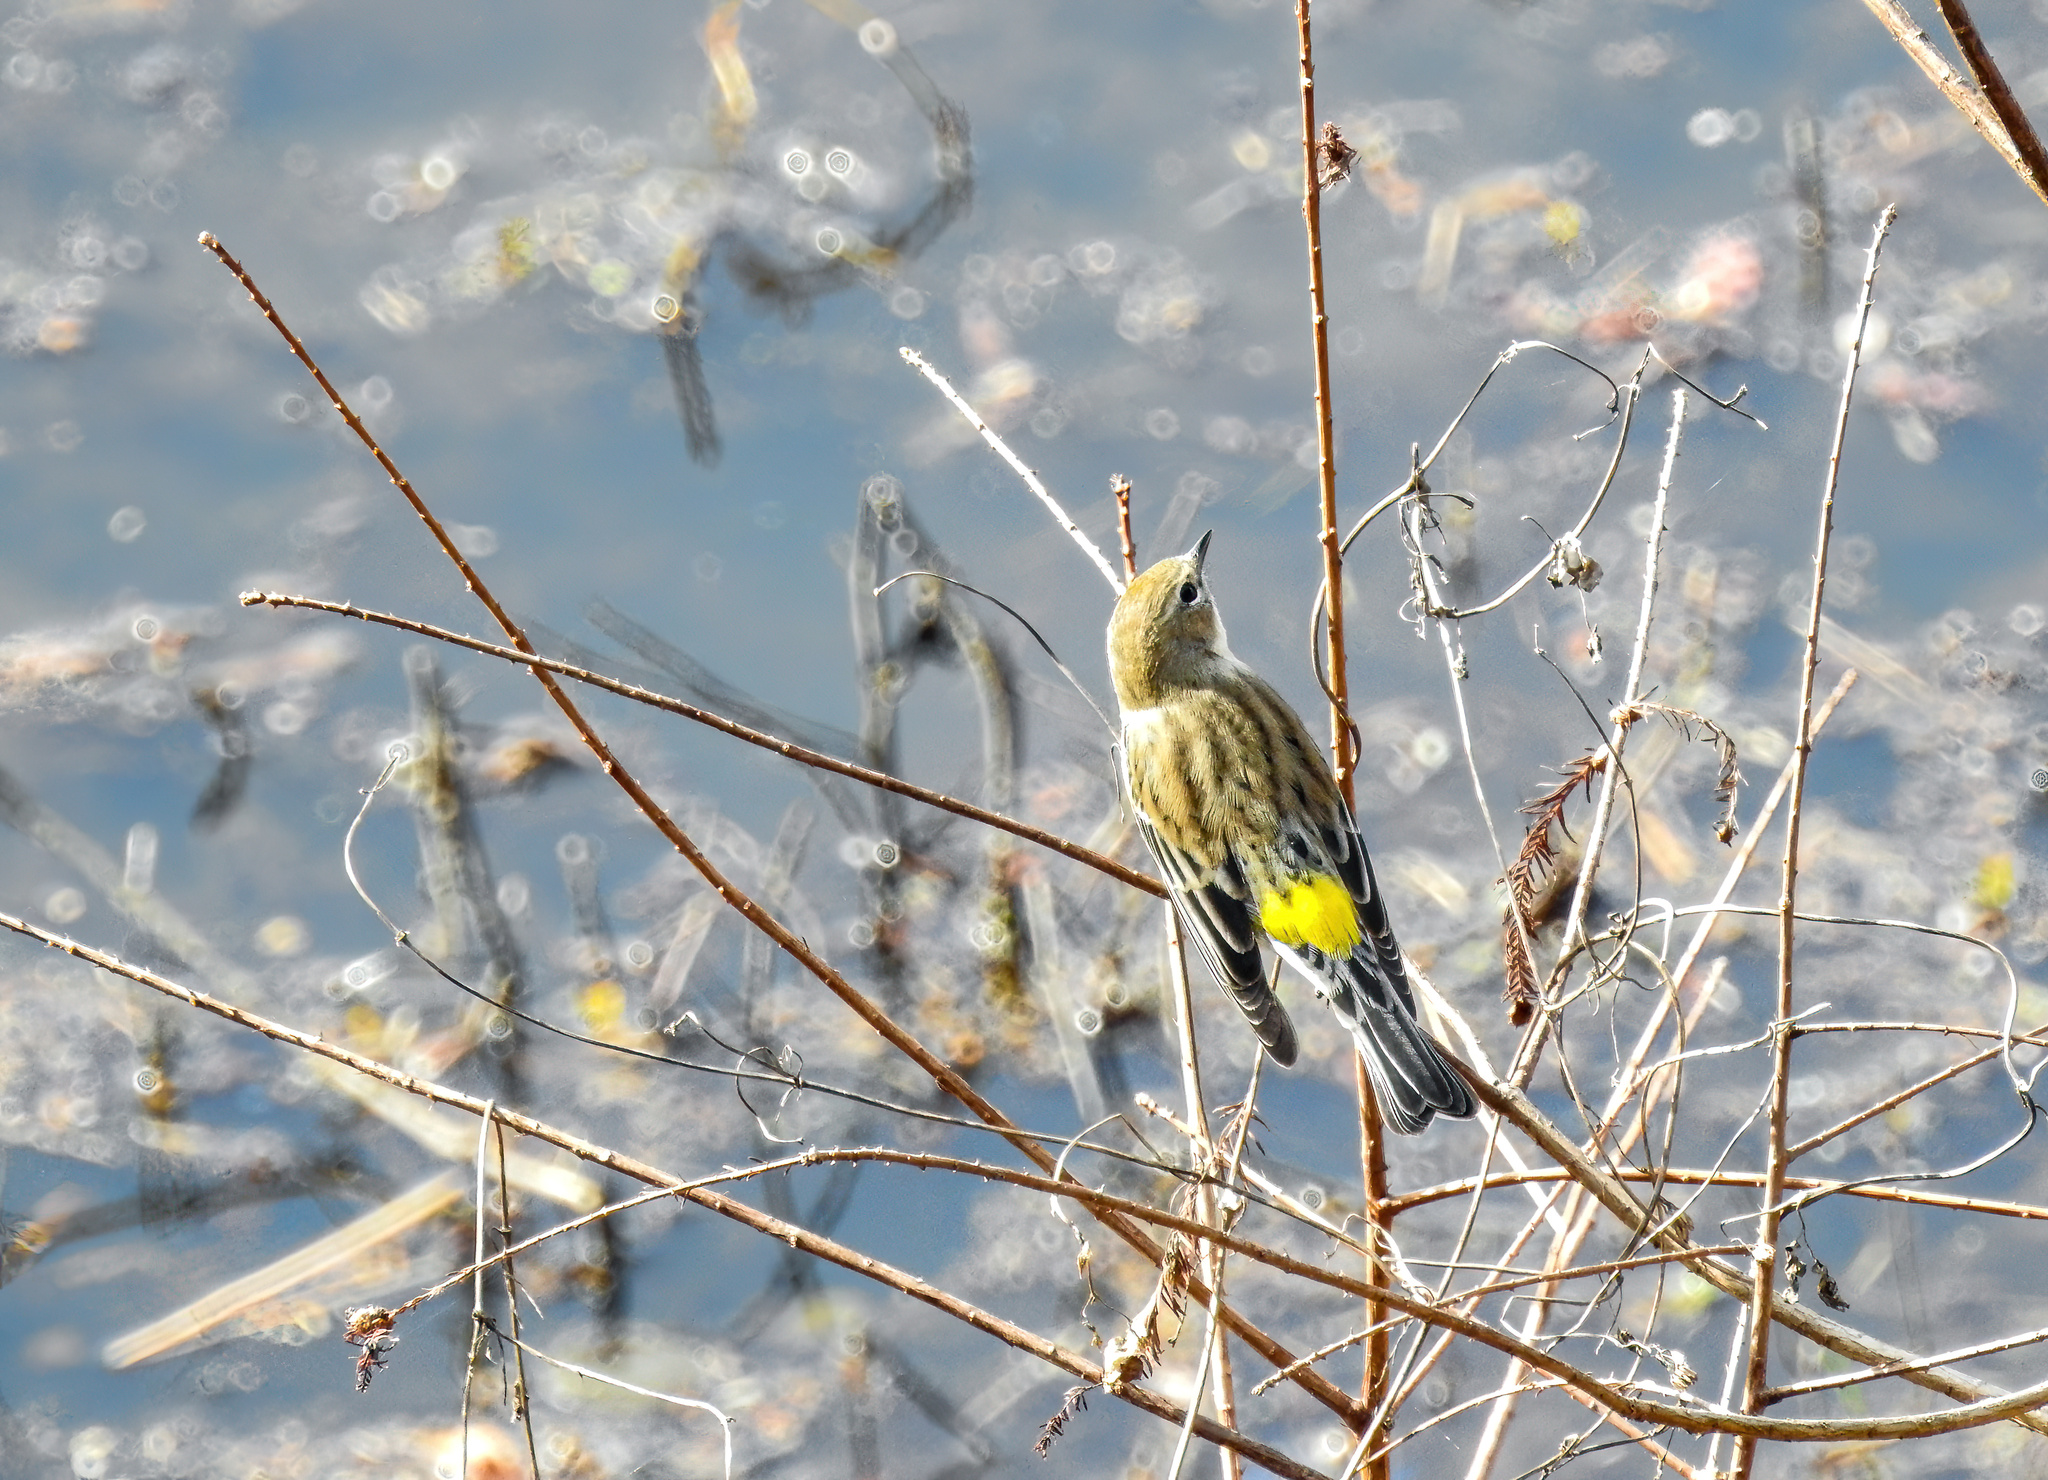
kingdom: Animalia
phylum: Chordata
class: Aves
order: Passeriformes
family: Parulidae
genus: Setophaga
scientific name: Setophaga coronata
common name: Myrtle warbler
